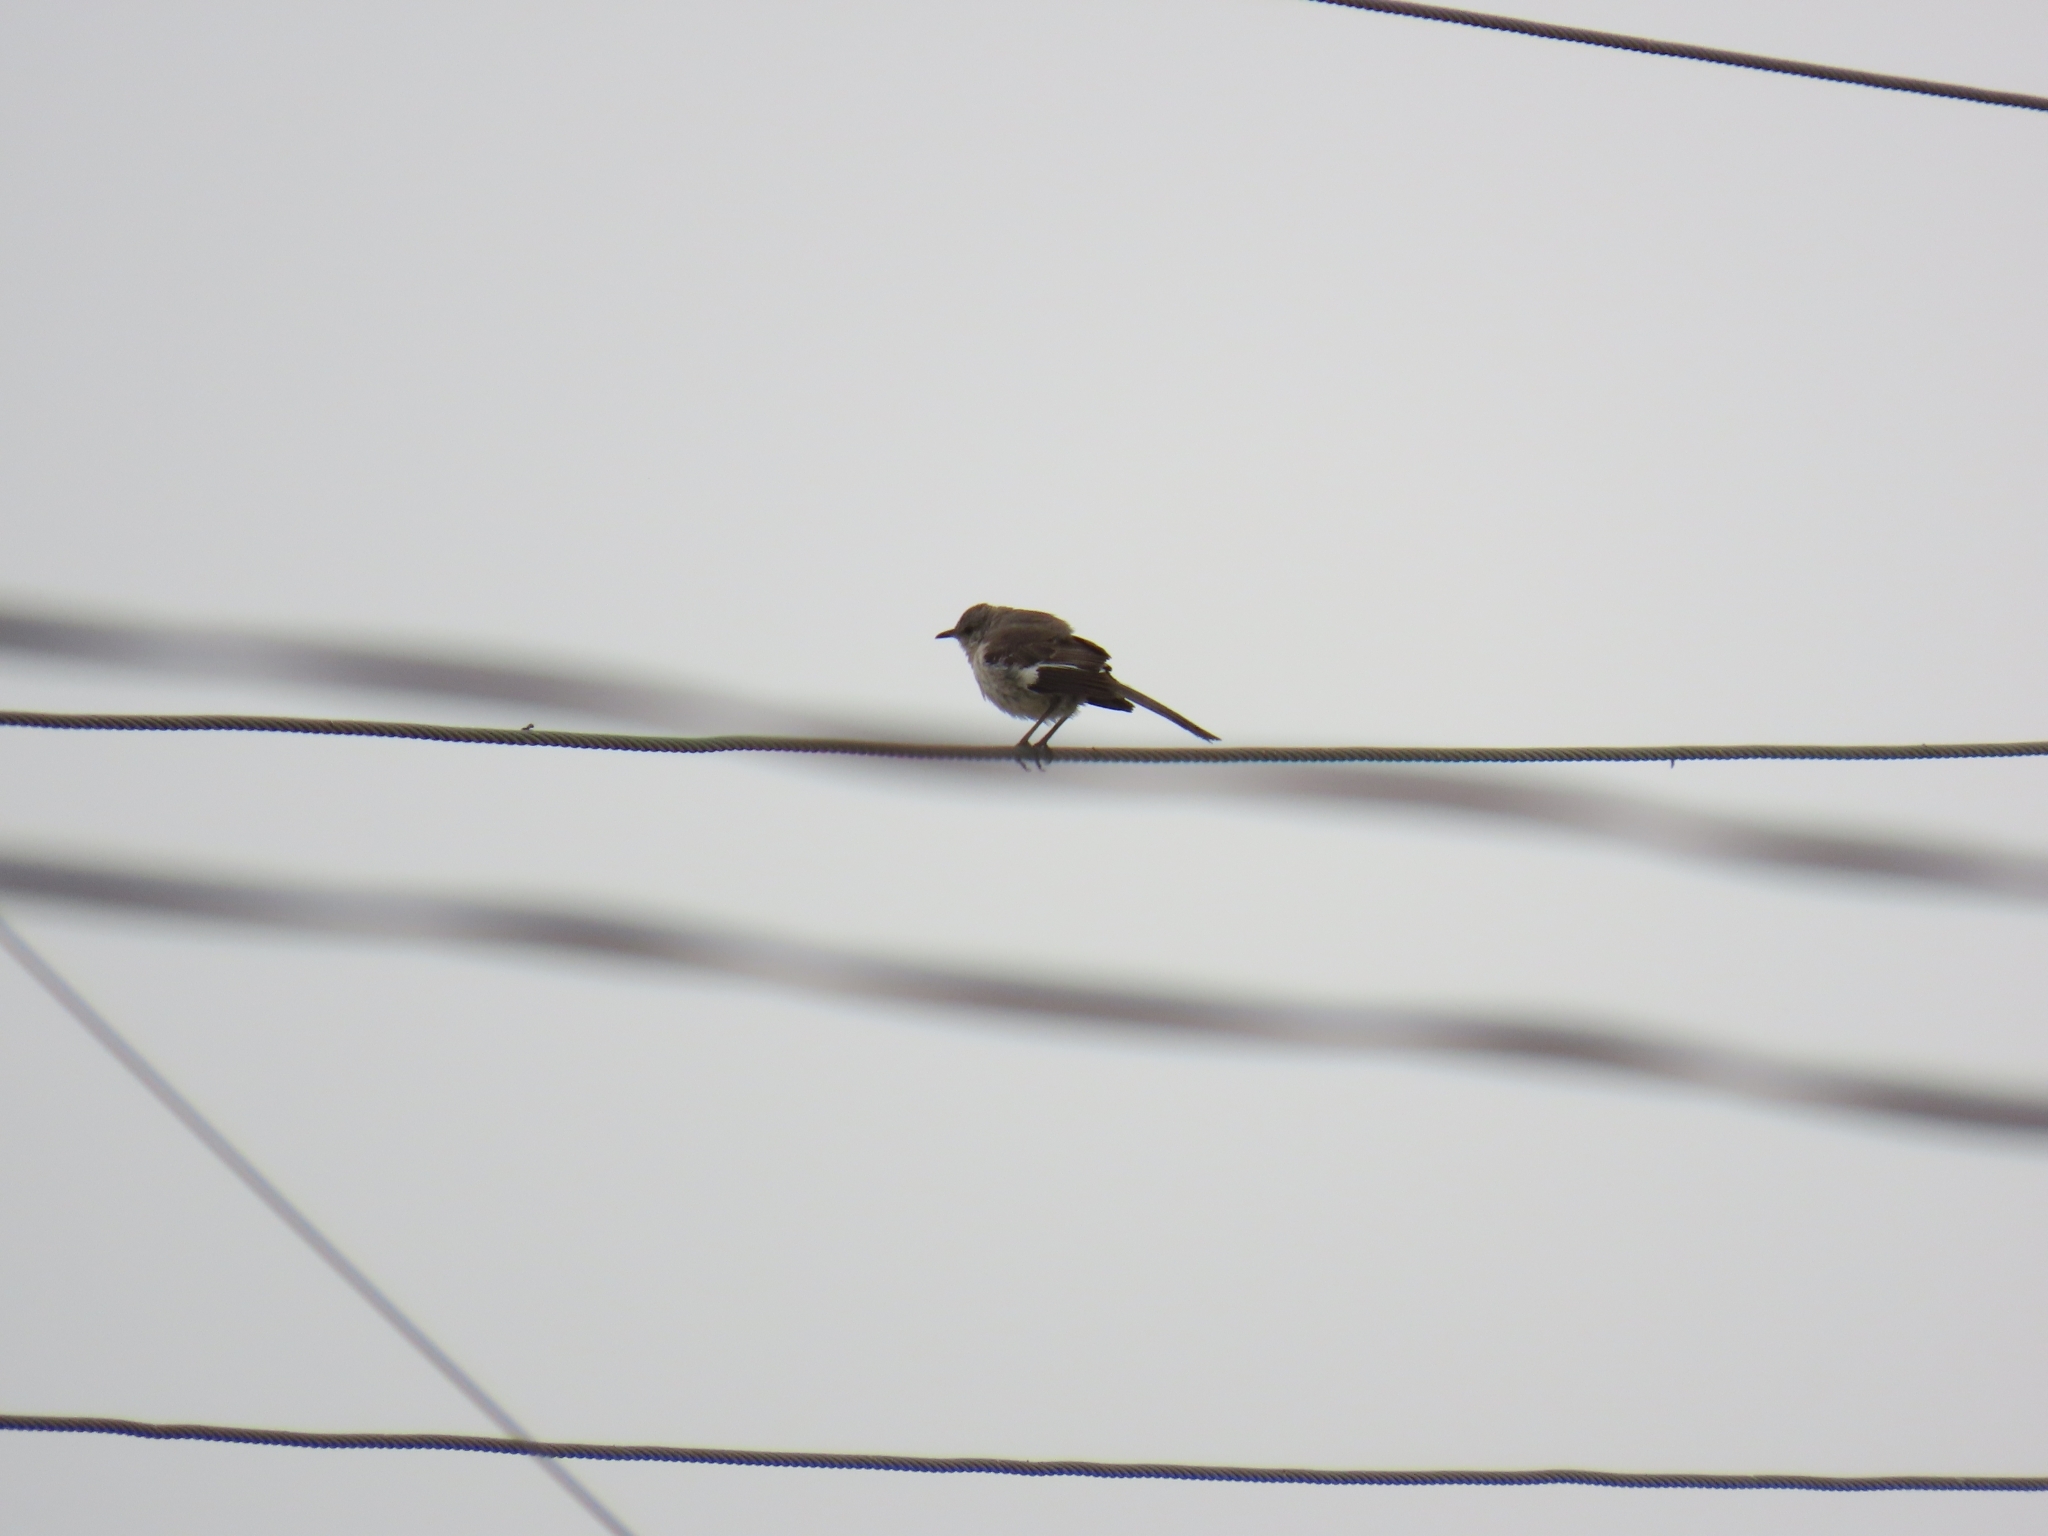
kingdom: Animalia
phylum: Chordata
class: Aves
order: Passeriformes
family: Mimidae
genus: Mimus
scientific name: Mimus polyglottos
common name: Northern mockingbird
